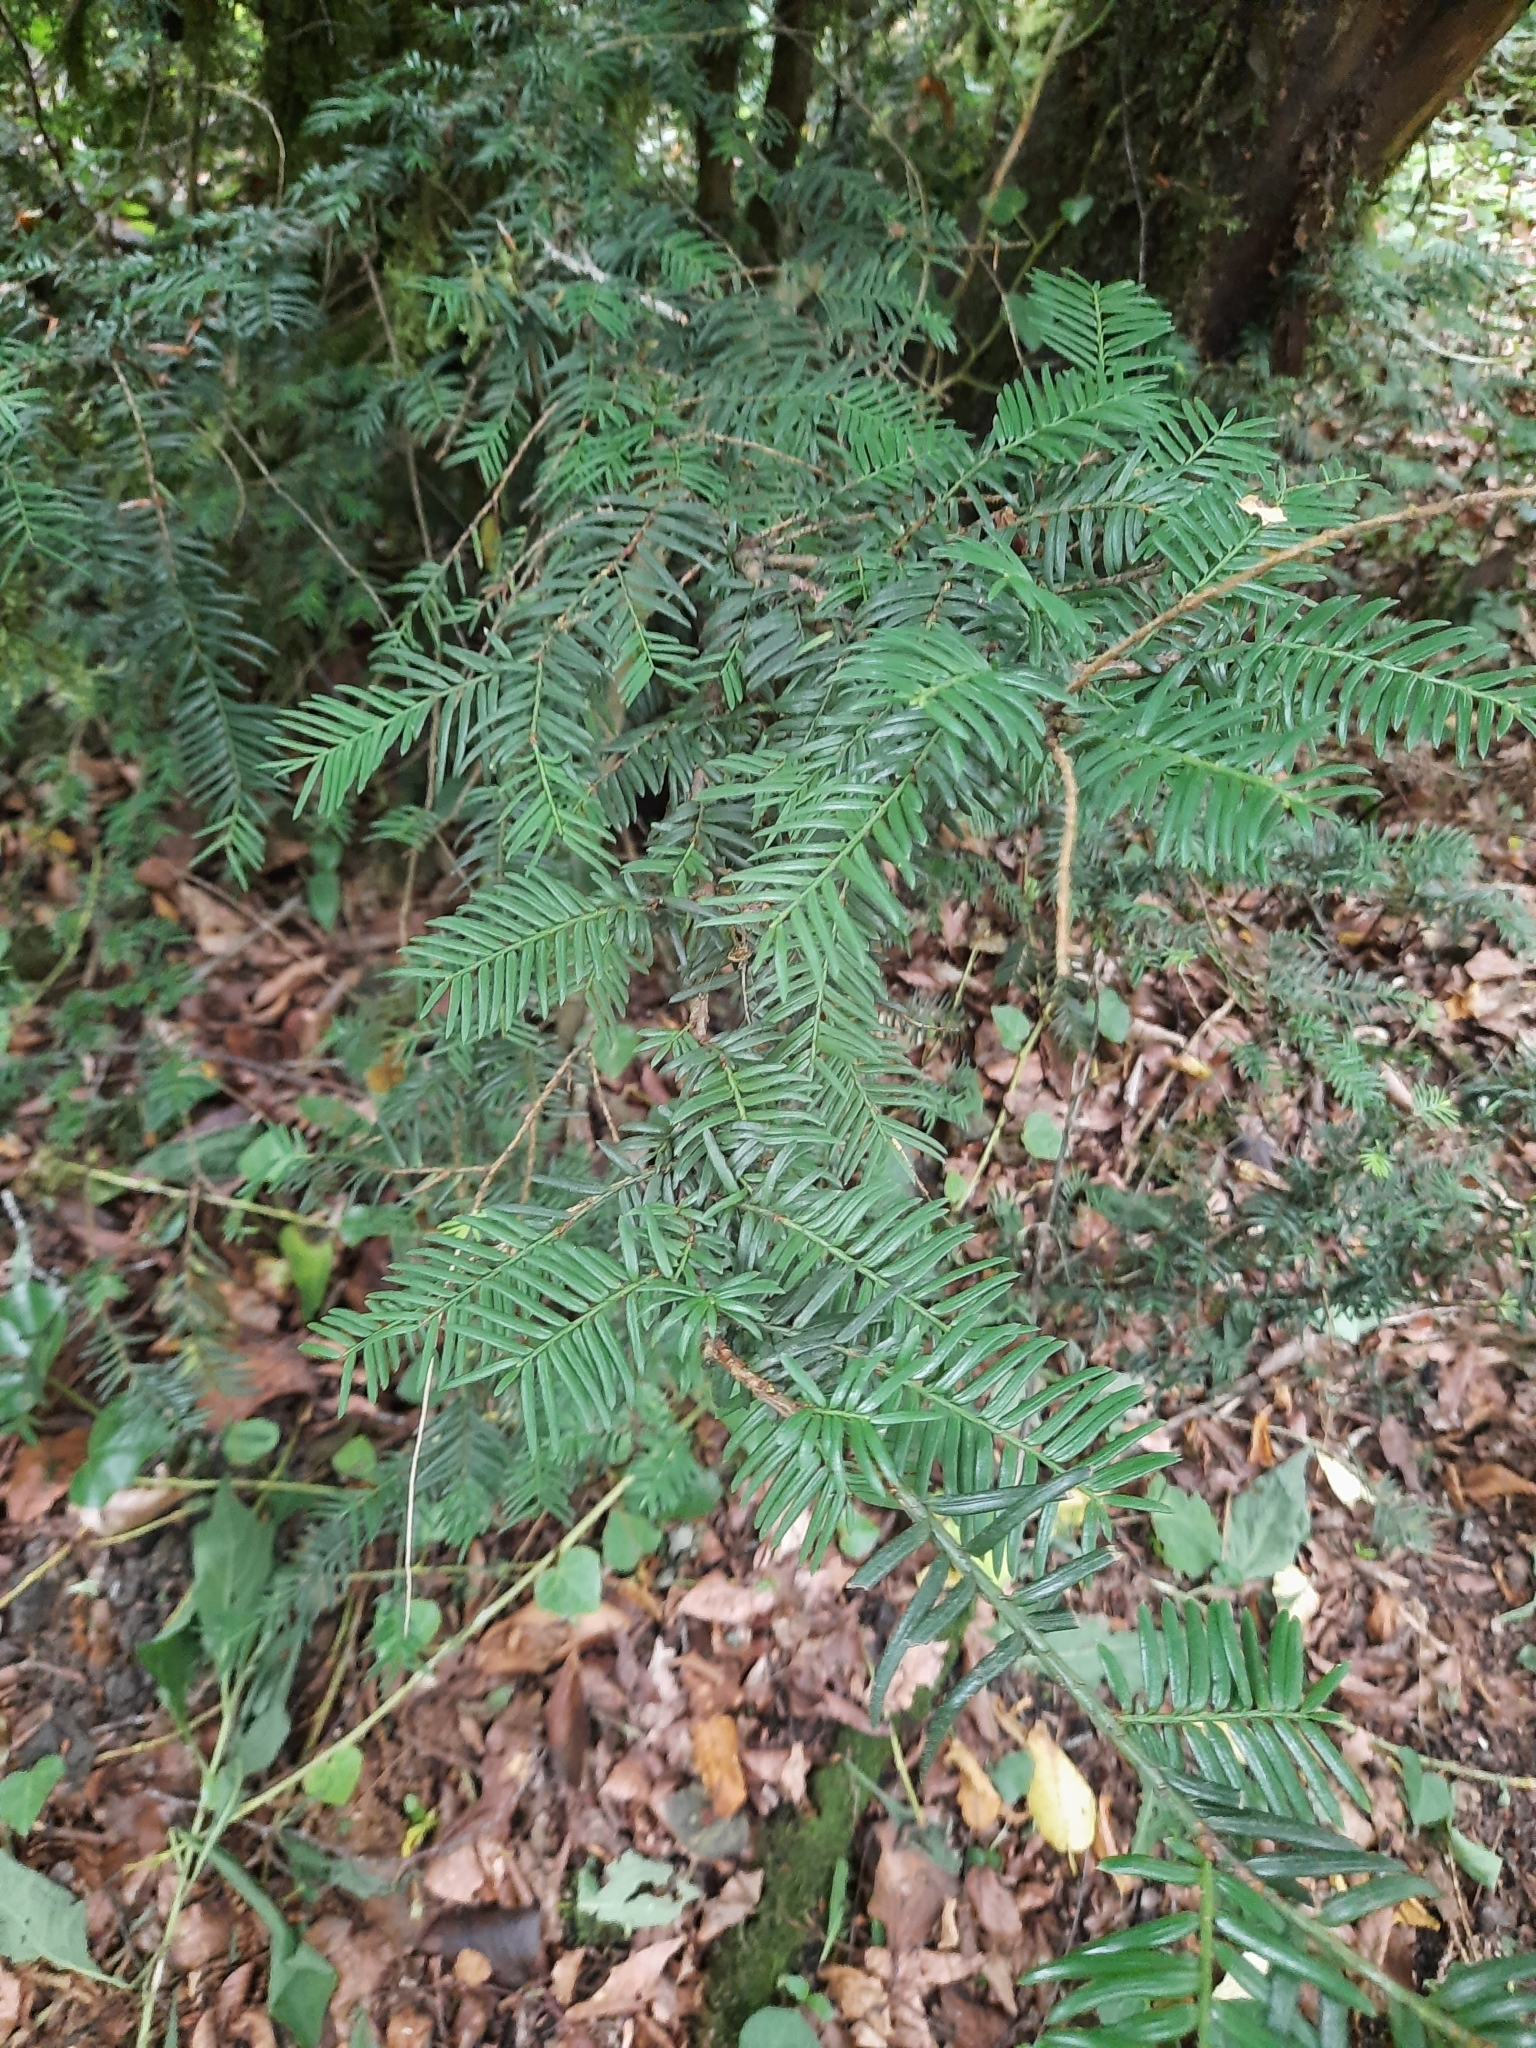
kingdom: Plantae
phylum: Tracheophyta
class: Pinopsida
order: Pinales
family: Taxaceae
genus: Taxus
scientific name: Taxus baccata
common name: Yew
